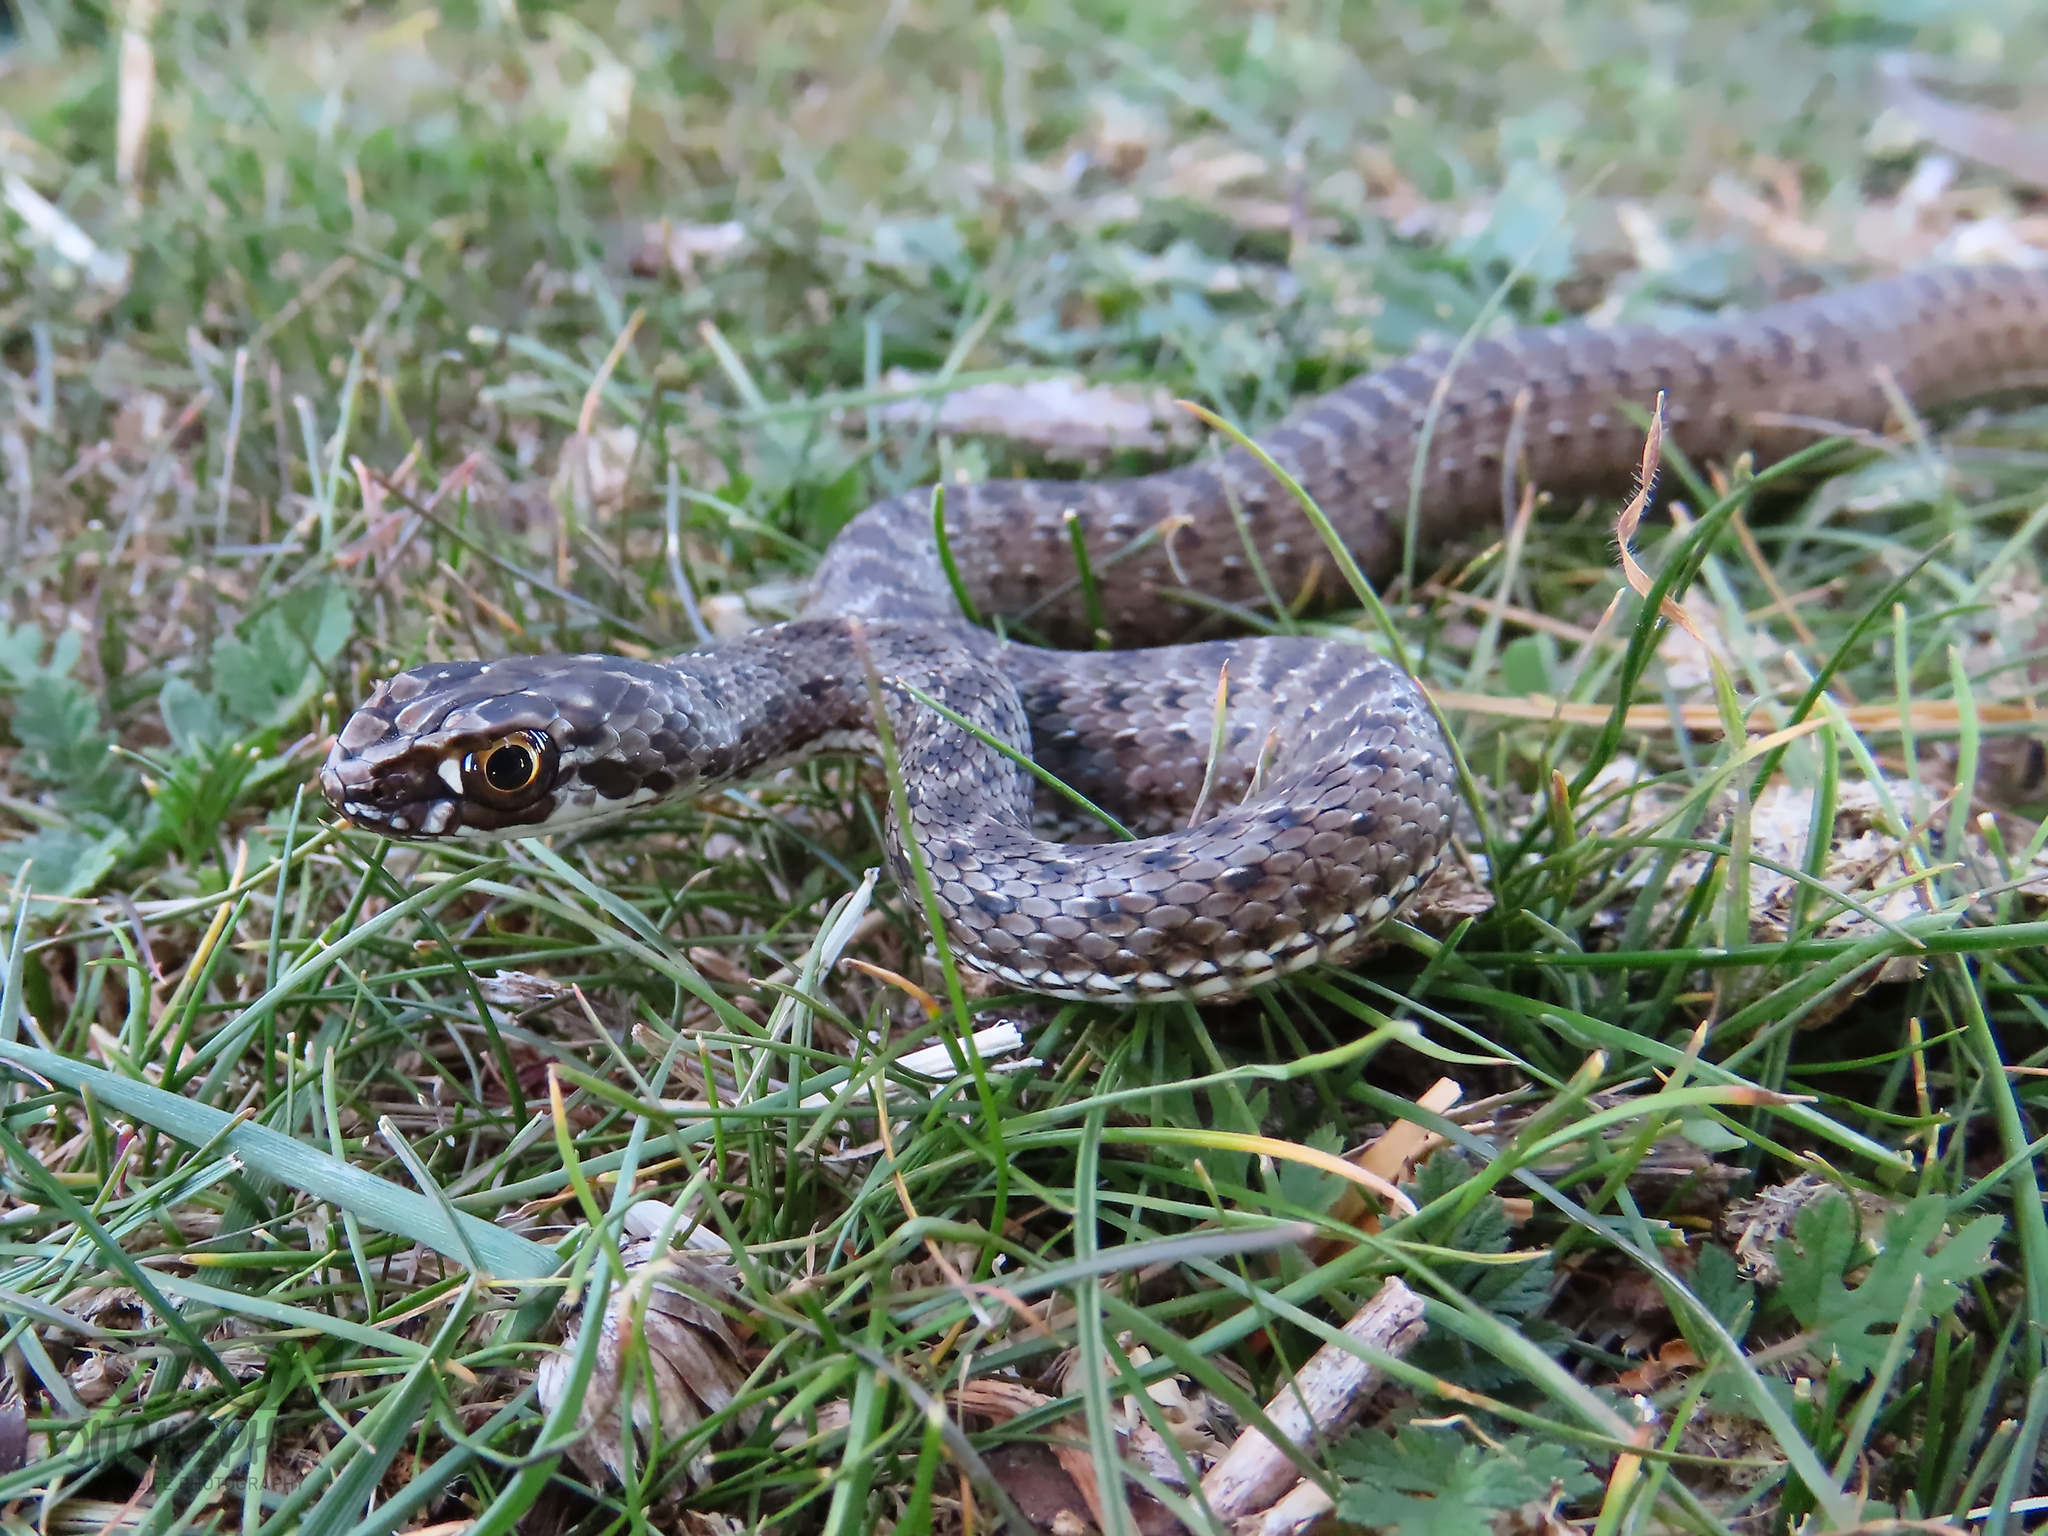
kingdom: Animalia
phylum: Chordata
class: Squamata
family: Psammophiidae
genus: Malpolon
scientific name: Malpolon monspessulanus
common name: Montpellier snake
